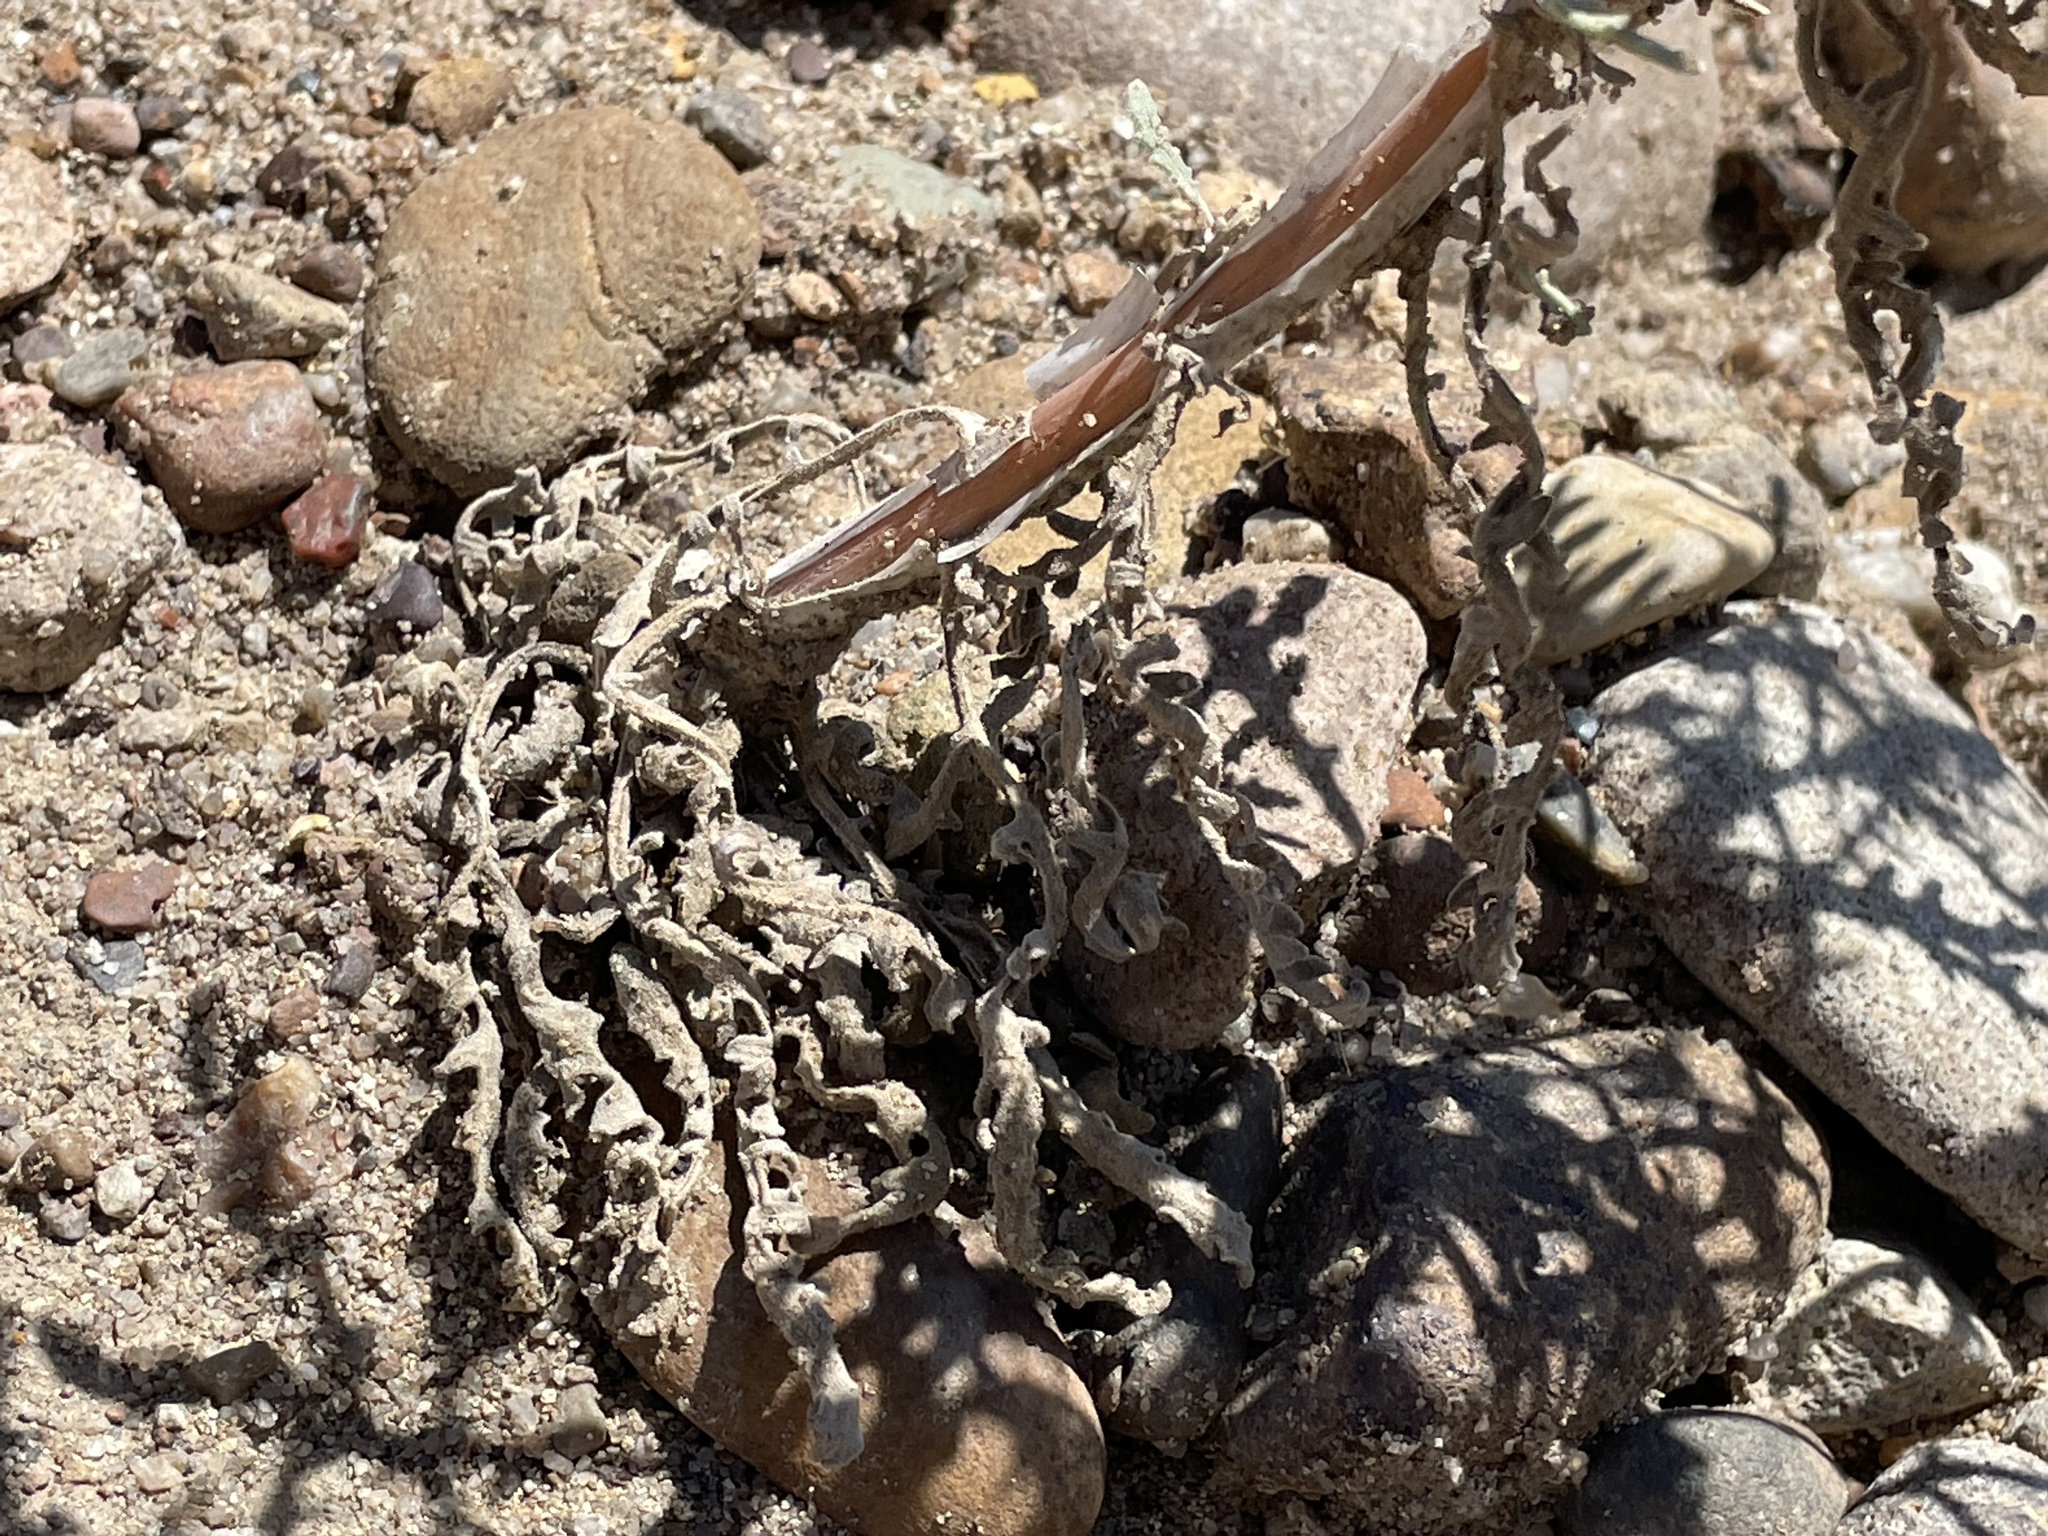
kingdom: Plantae
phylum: Tracheophyta
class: Magnoliopsida
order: Cornales
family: Loasaceae
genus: Mentzelia
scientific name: Mentzelia sivinskii
